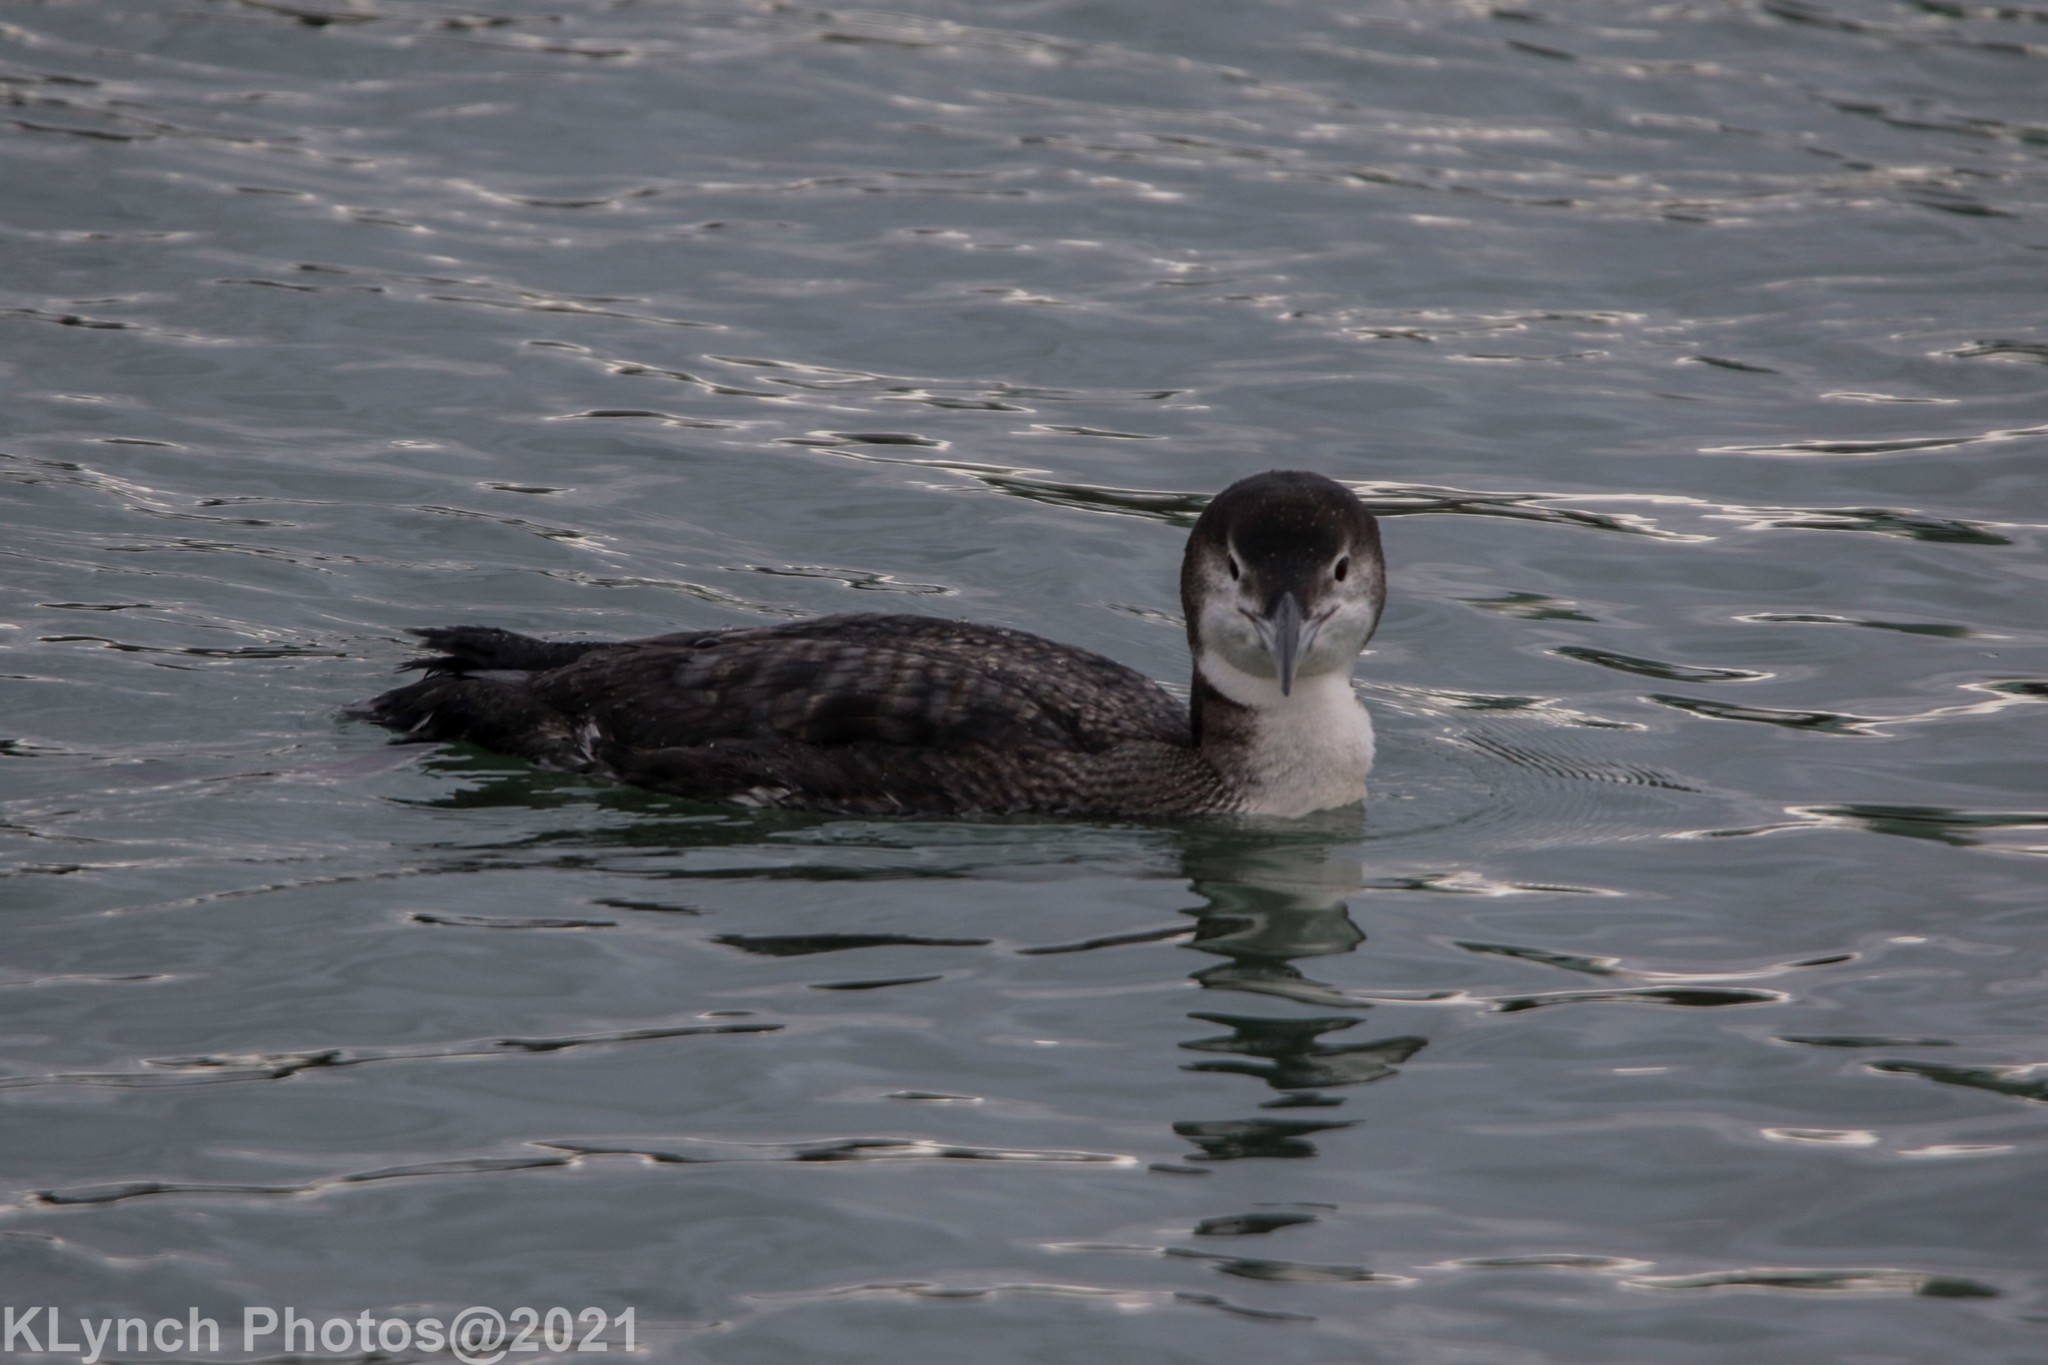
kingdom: Animalia
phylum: Chordata
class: Aves
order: Gaviiformes
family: Gaviidae
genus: Gavia
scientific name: Gavia immer
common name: Common loon
